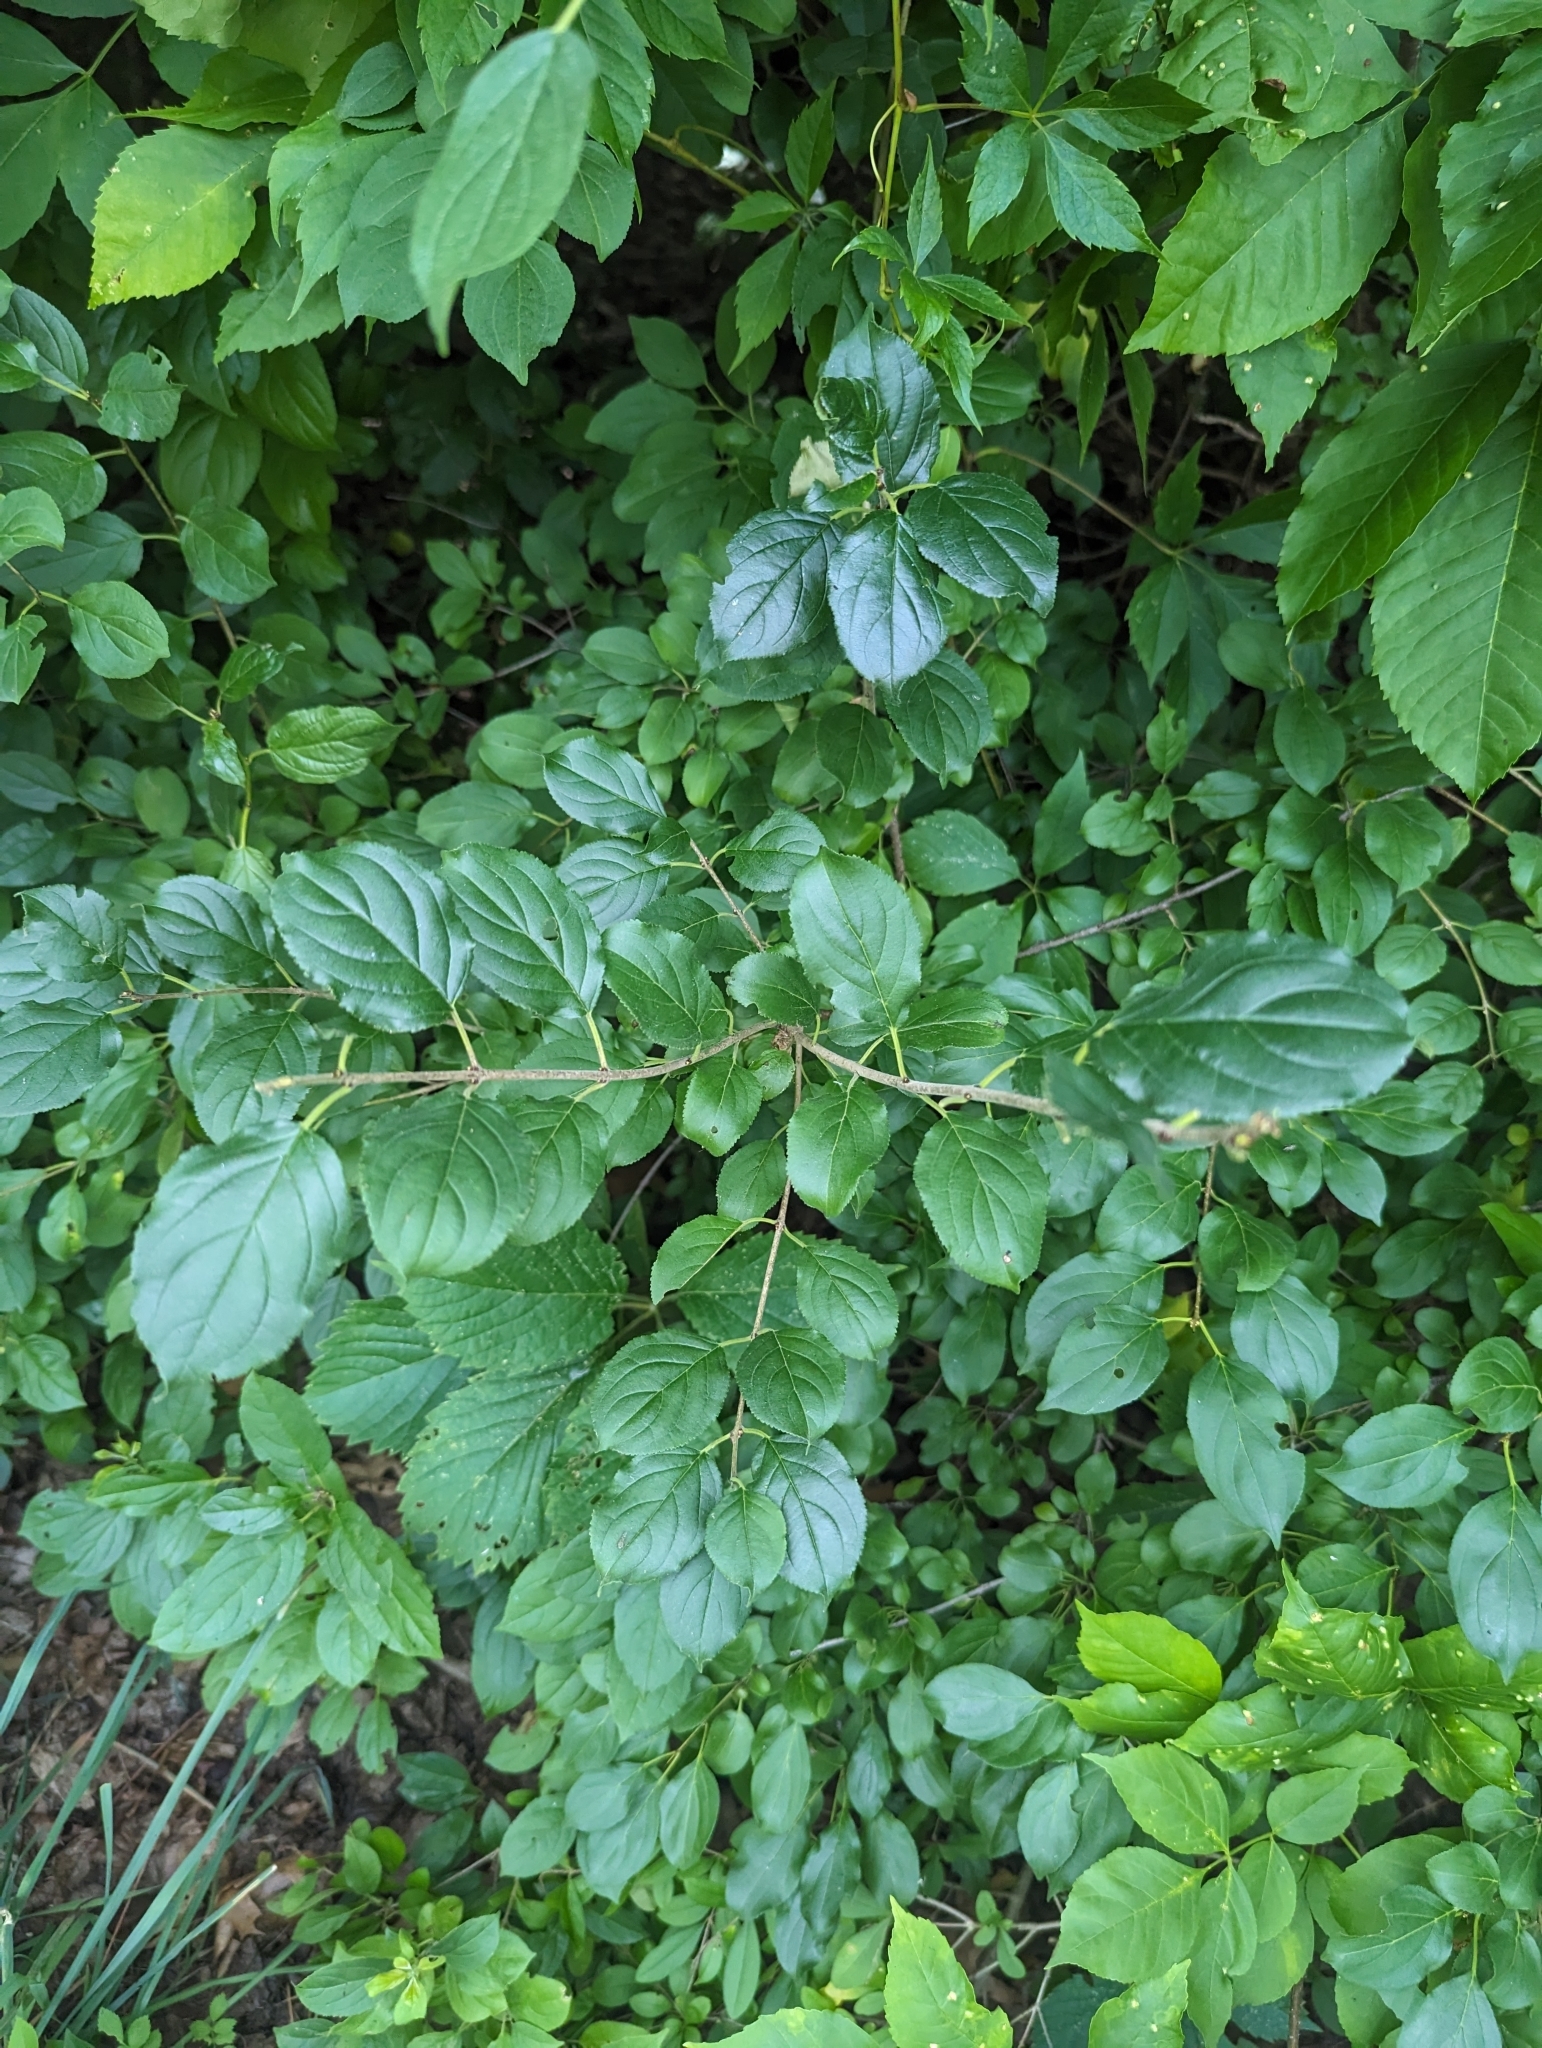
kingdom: Plantae
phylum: Tracheophyta
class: Magnoliopsida
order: Rosales
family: Rhamnaceae
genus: Rhamnus
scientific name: Rhamnus cathartica
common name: Common buckthorn
